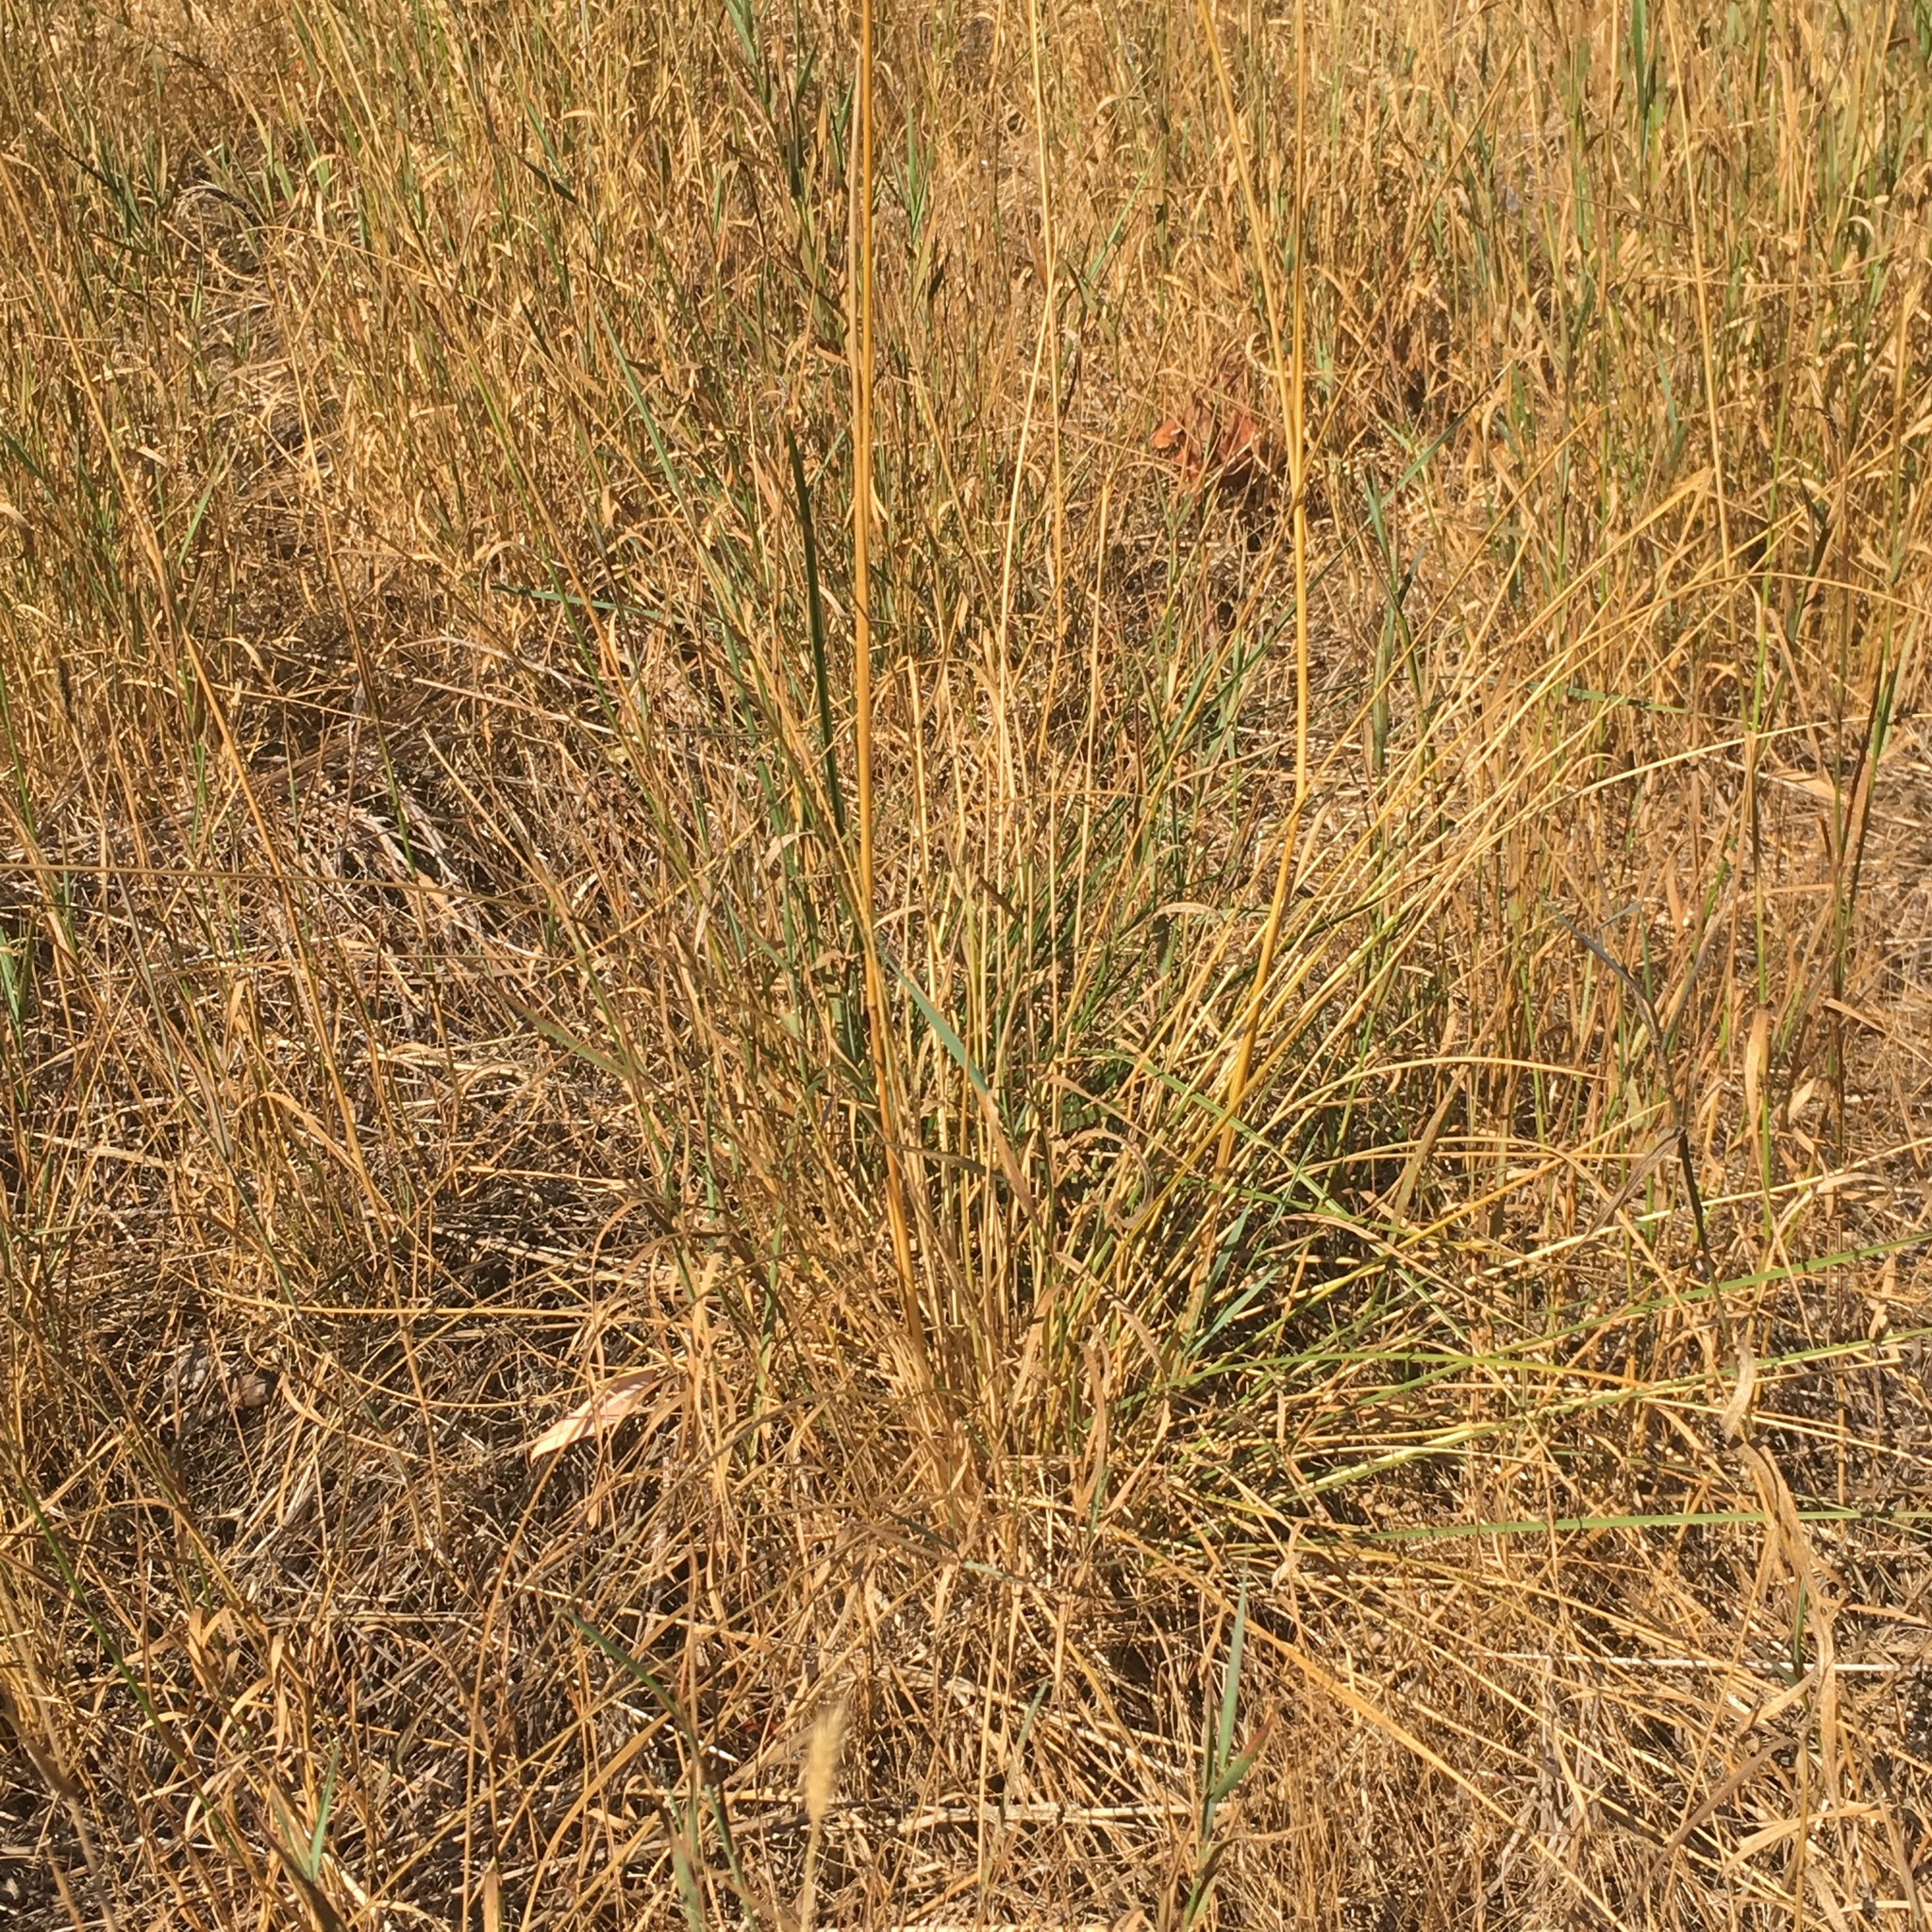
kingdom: Plantae
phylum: Tracheophyta
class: Liliopsida
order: Poales
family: Poaceae
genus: Deschampsia
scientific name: Deschampsia cespitosa
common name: Tufted hair-grass
